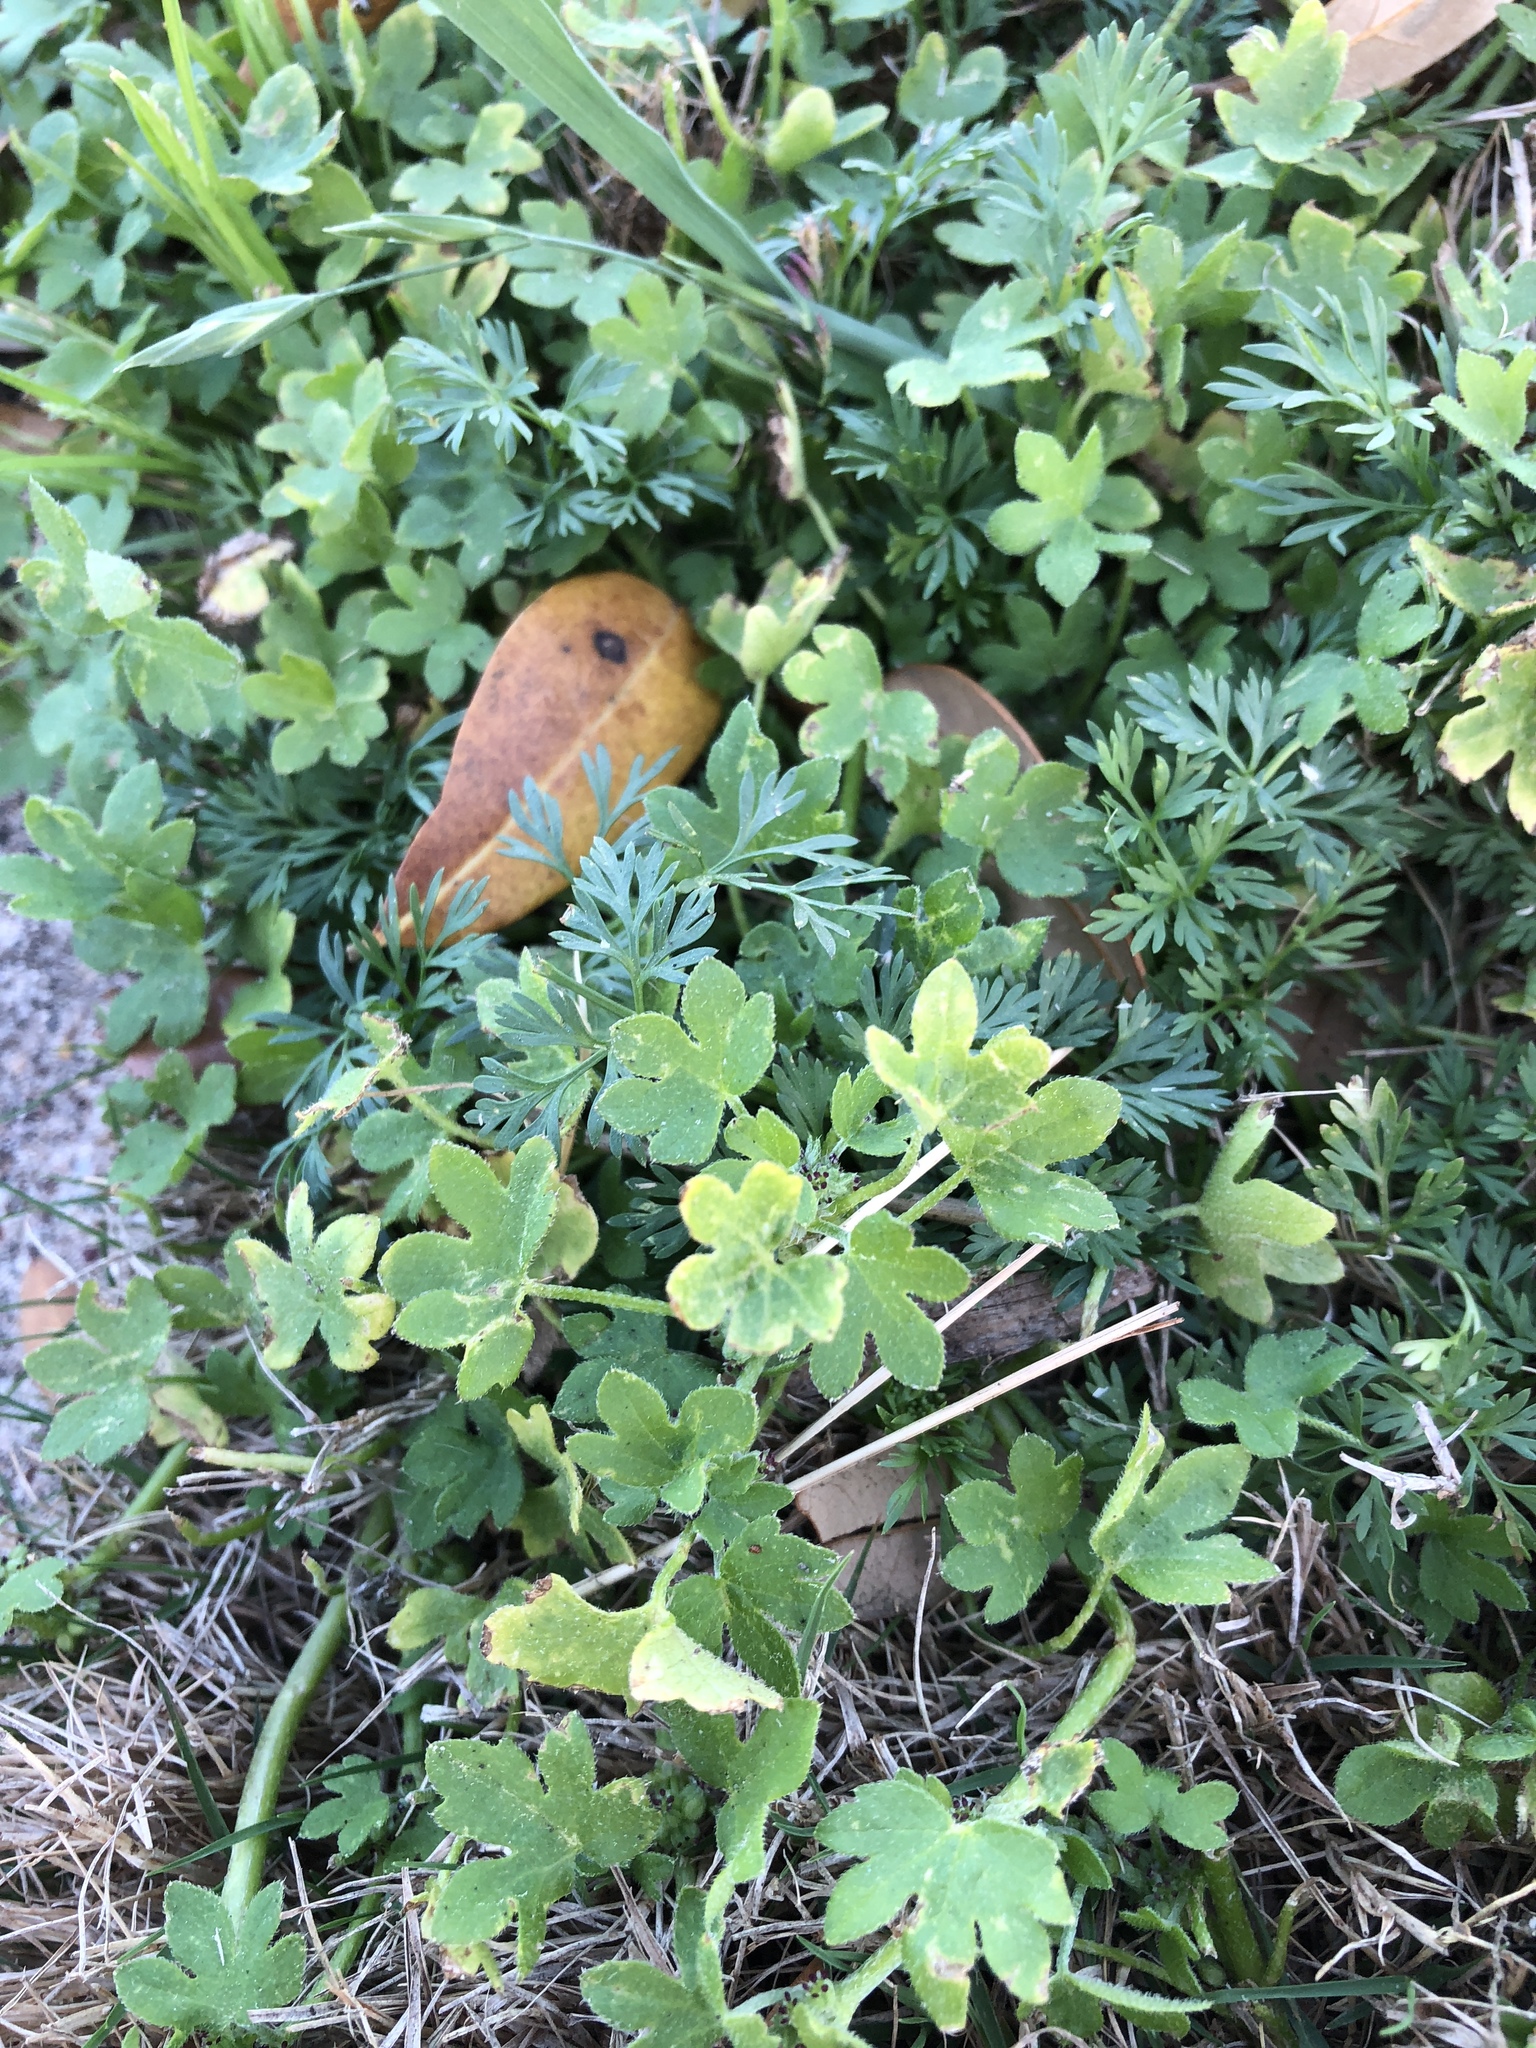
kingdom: Plantae
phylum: Tracheophyta
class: Magnoliopsida
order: Apiales
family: Apiaceae
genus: Bowlesia
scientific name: Bowlesia incana
